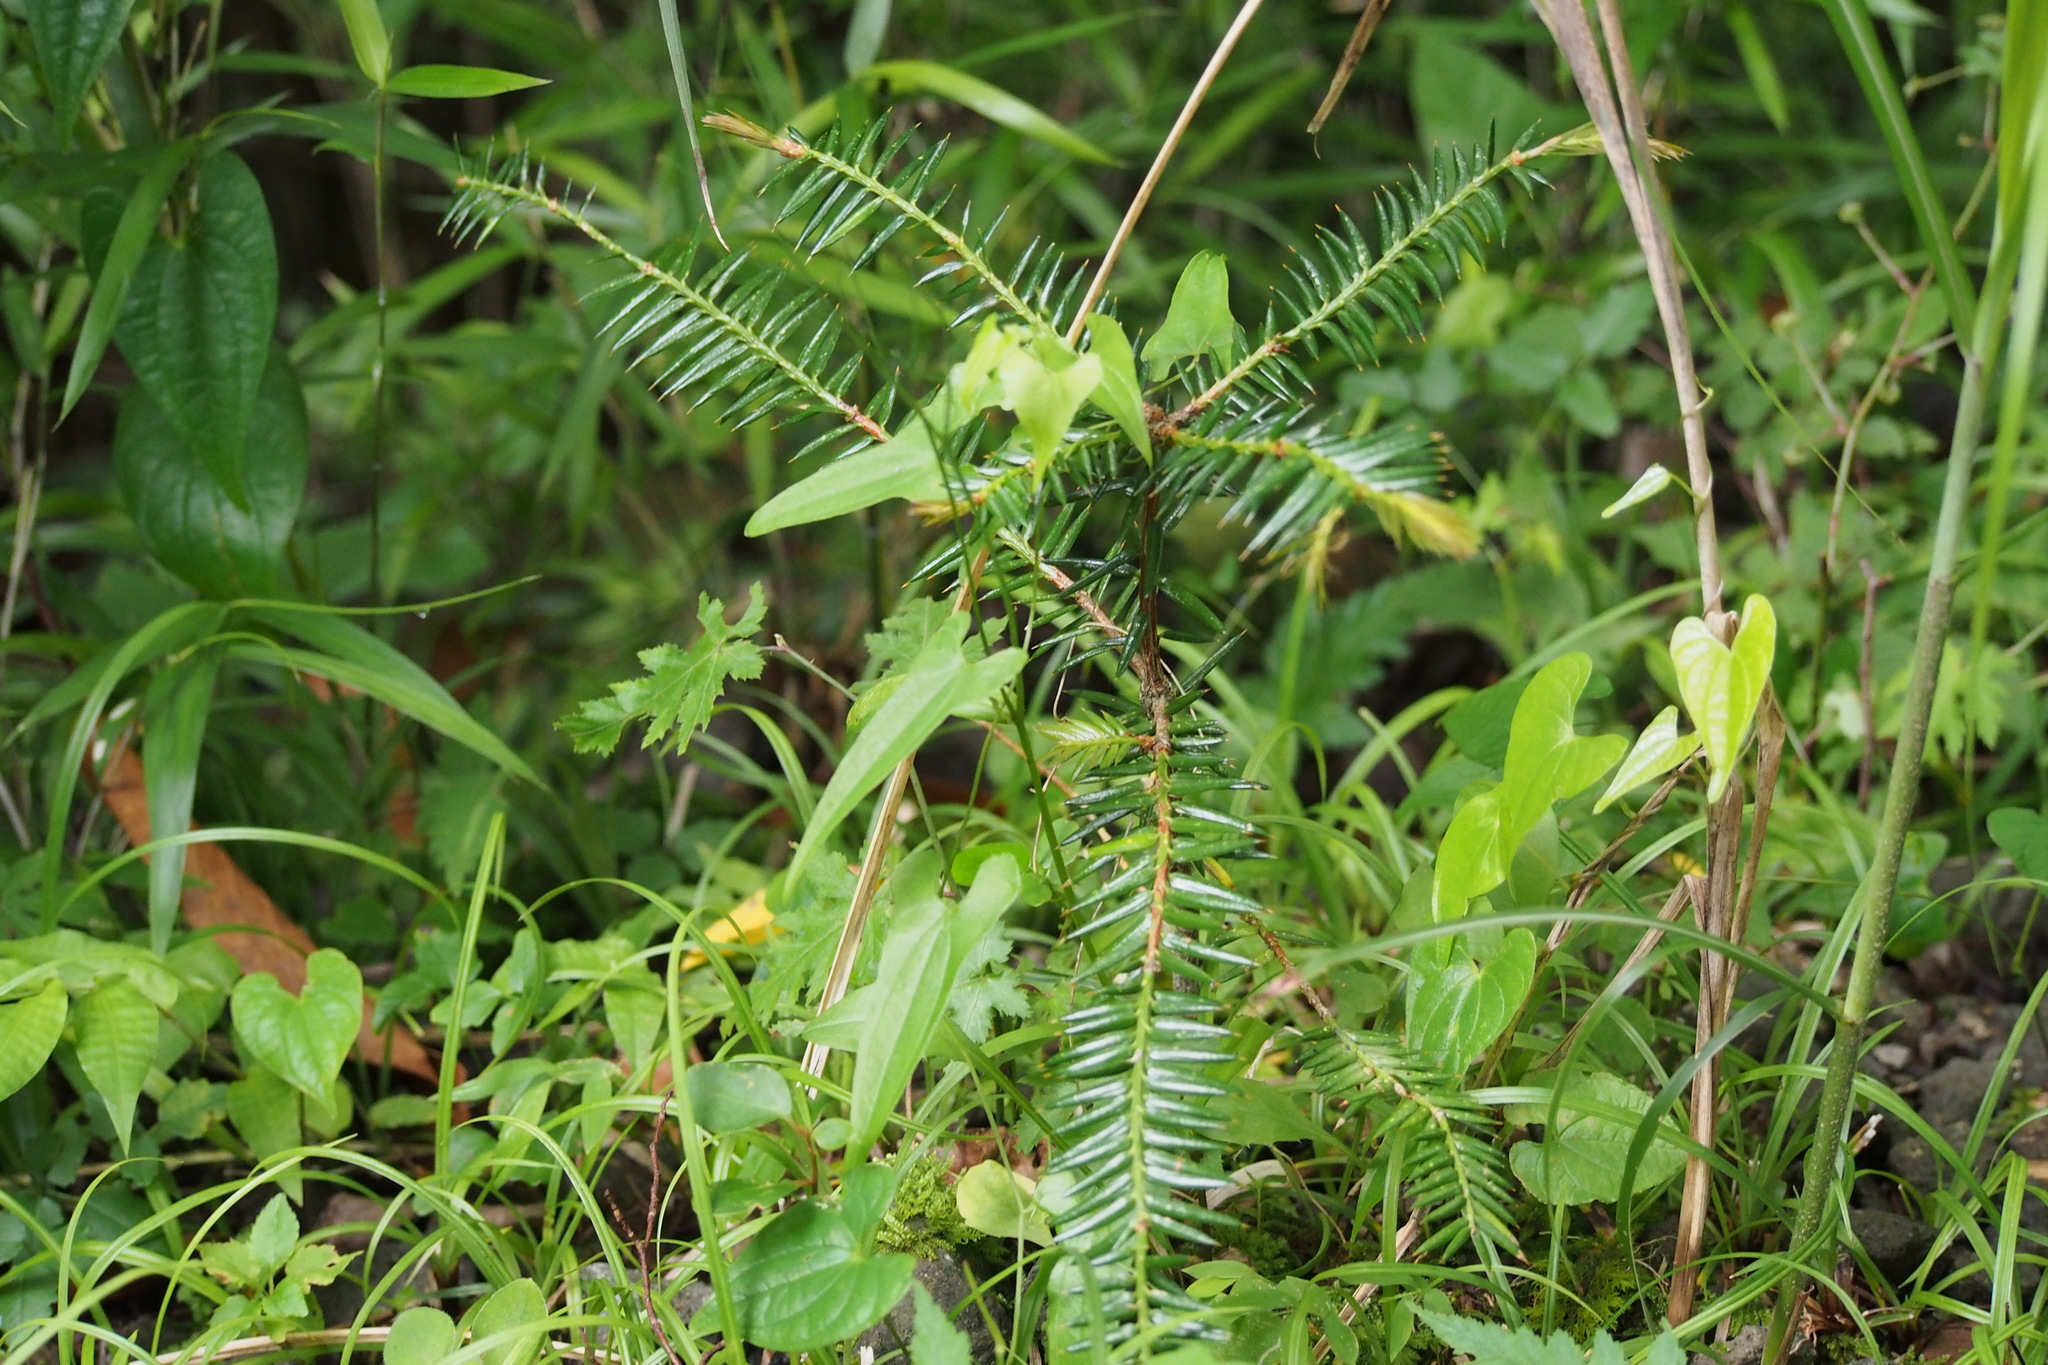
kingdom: Plantae
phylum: Tracheophyta
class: Pinopsida
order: Pinales
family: Taxaceae
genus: Torreya
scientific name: Torreya nucifera
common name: Japanese nutmeg tree
